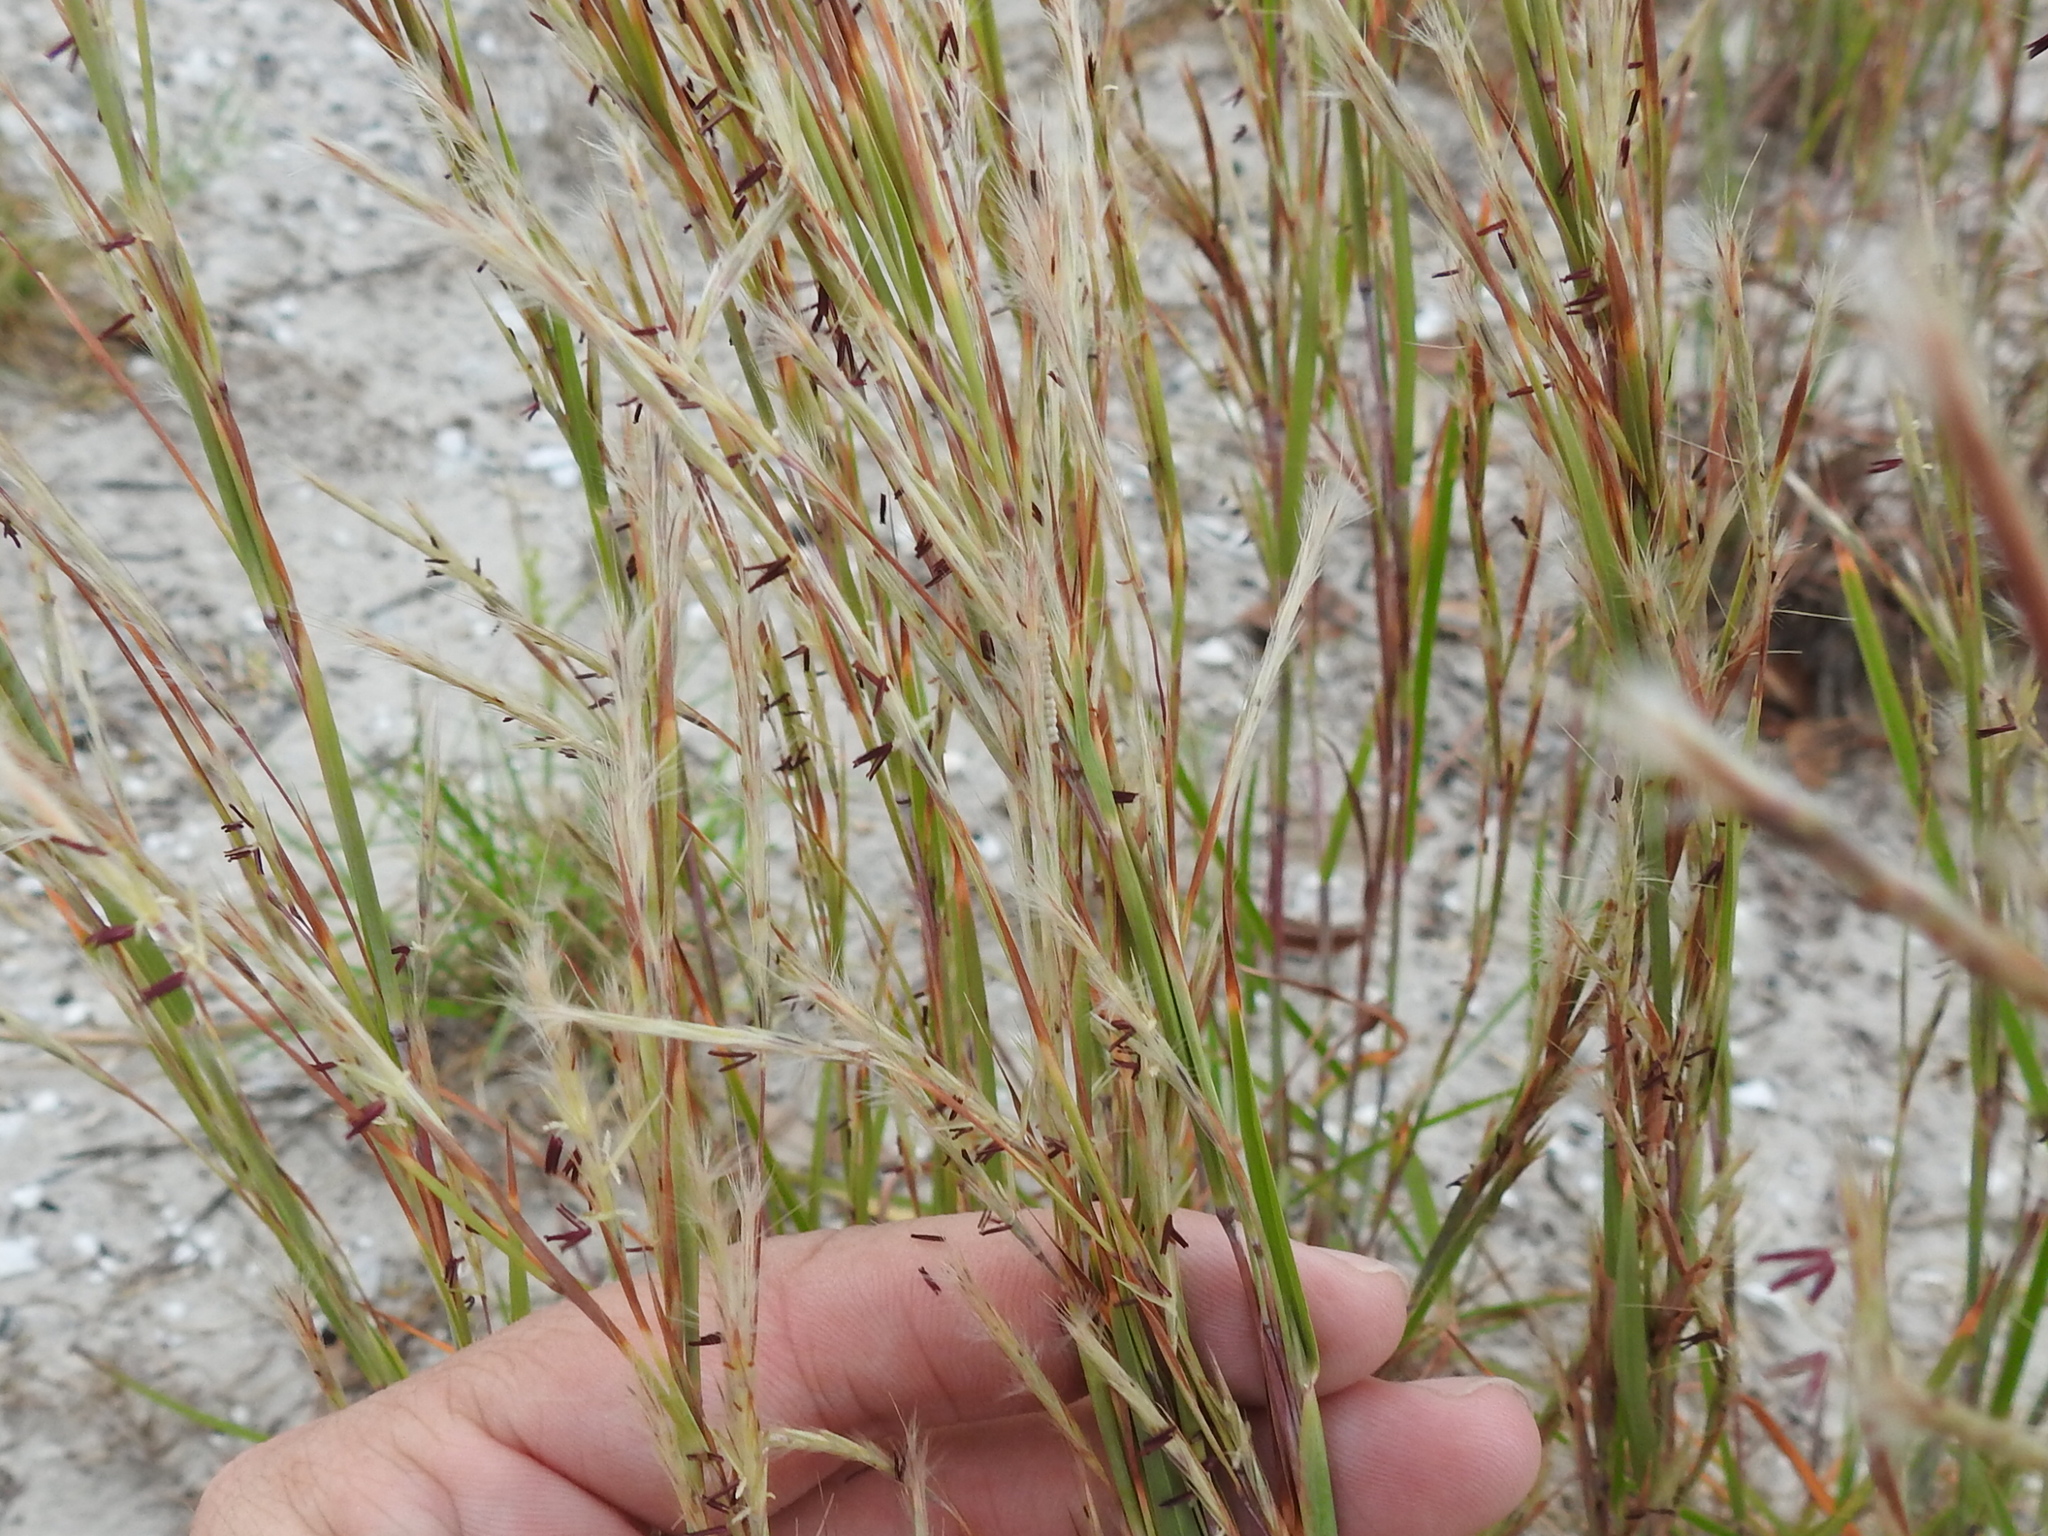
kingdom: Plantae
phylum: Tracheophyta
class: Liliopsida
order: Poales
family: Poaceae
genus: Schizachyrium
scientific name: Schizachyrium scoparium
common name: Little bluestem
